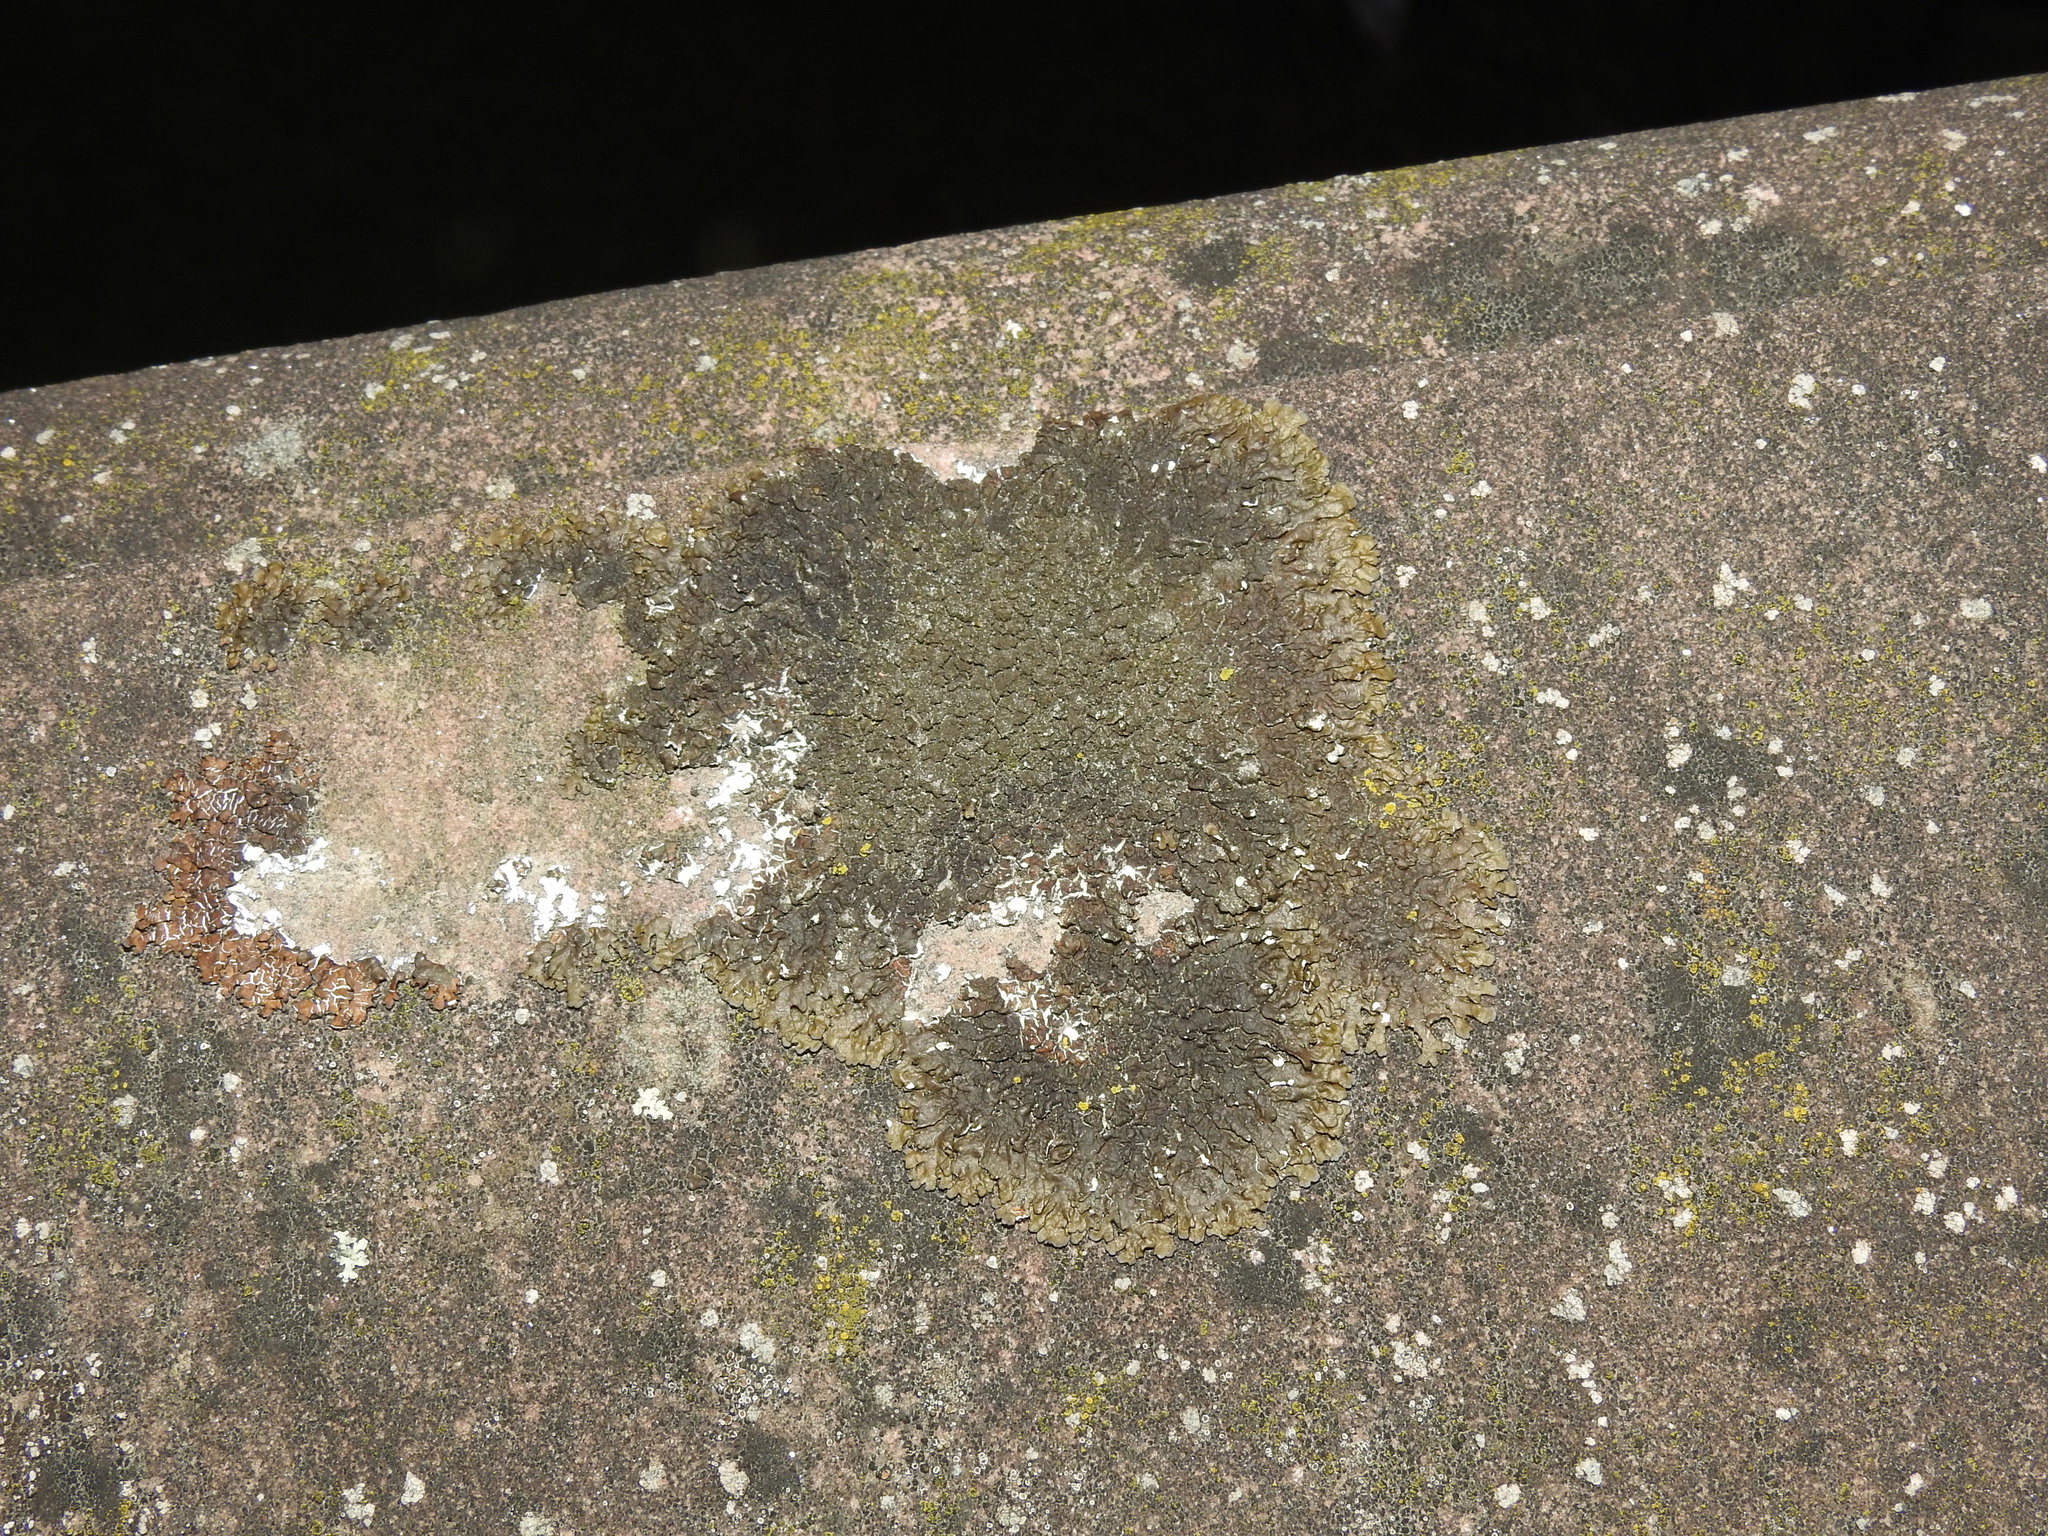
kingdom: Fungi
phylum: Ascomycota
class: Lecanoromycetes
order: Lecanorales
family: Parmeliaceae
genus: Melanelixia
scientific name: Melanelixia fuliginosa
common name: Shiny camouflage lichen
